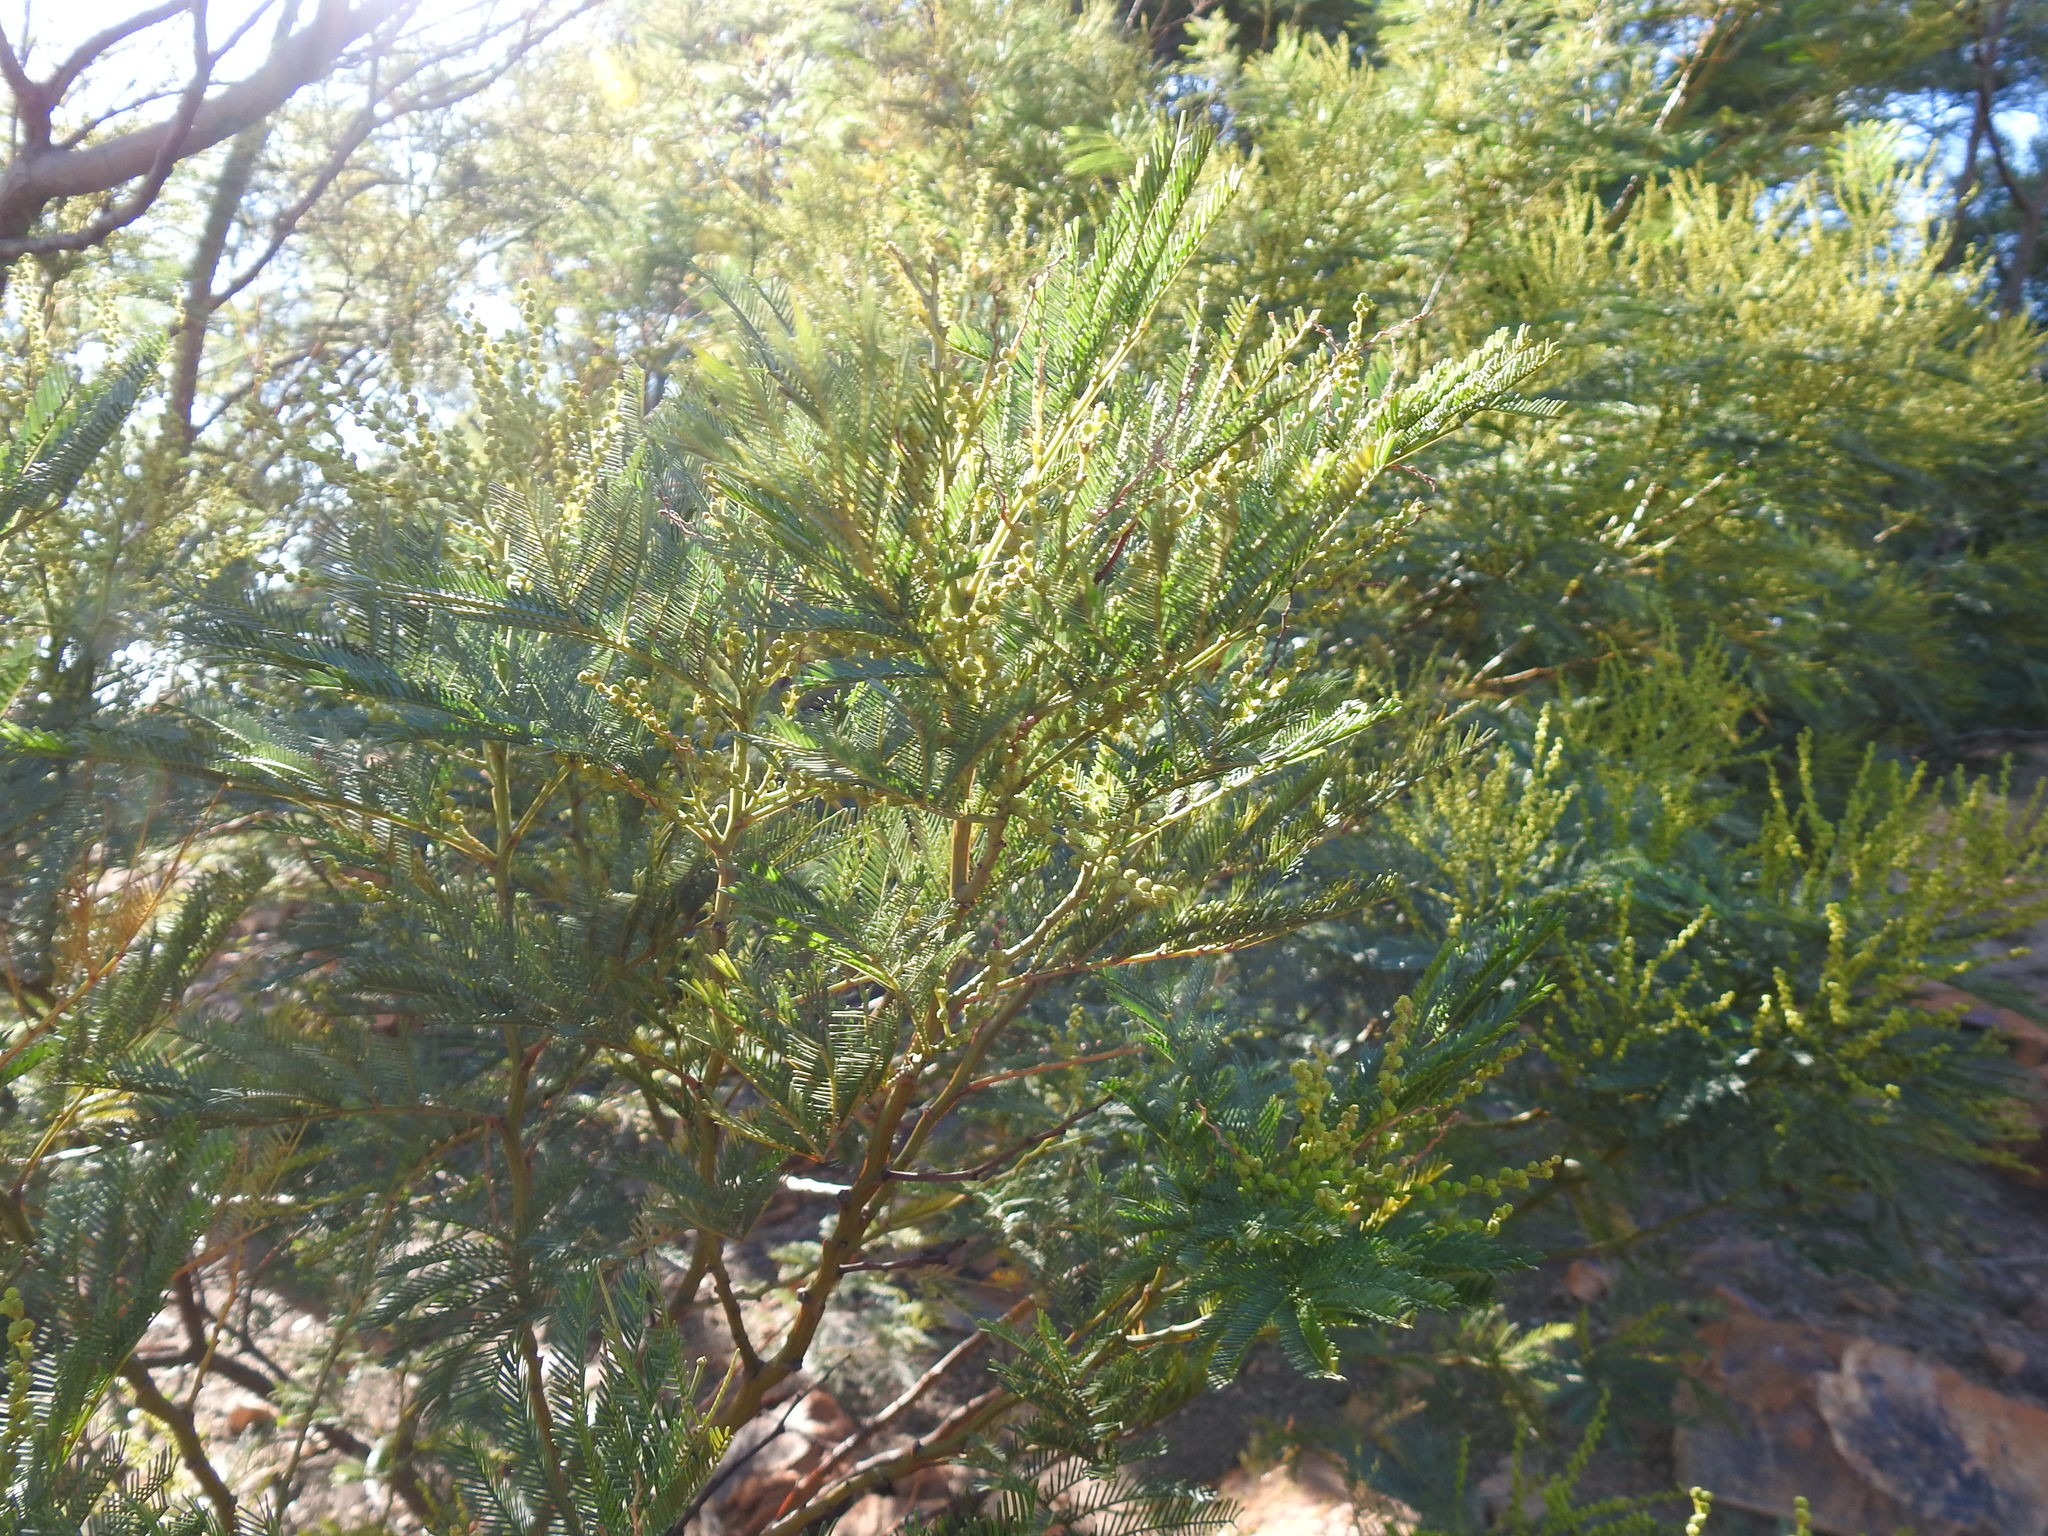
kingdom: Plantae
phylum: Tracheophyta
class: Magnoliopsida
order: Fabales
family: Fabaceae
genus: Acacia
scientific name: Acacia decurrens
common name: Green wattle
